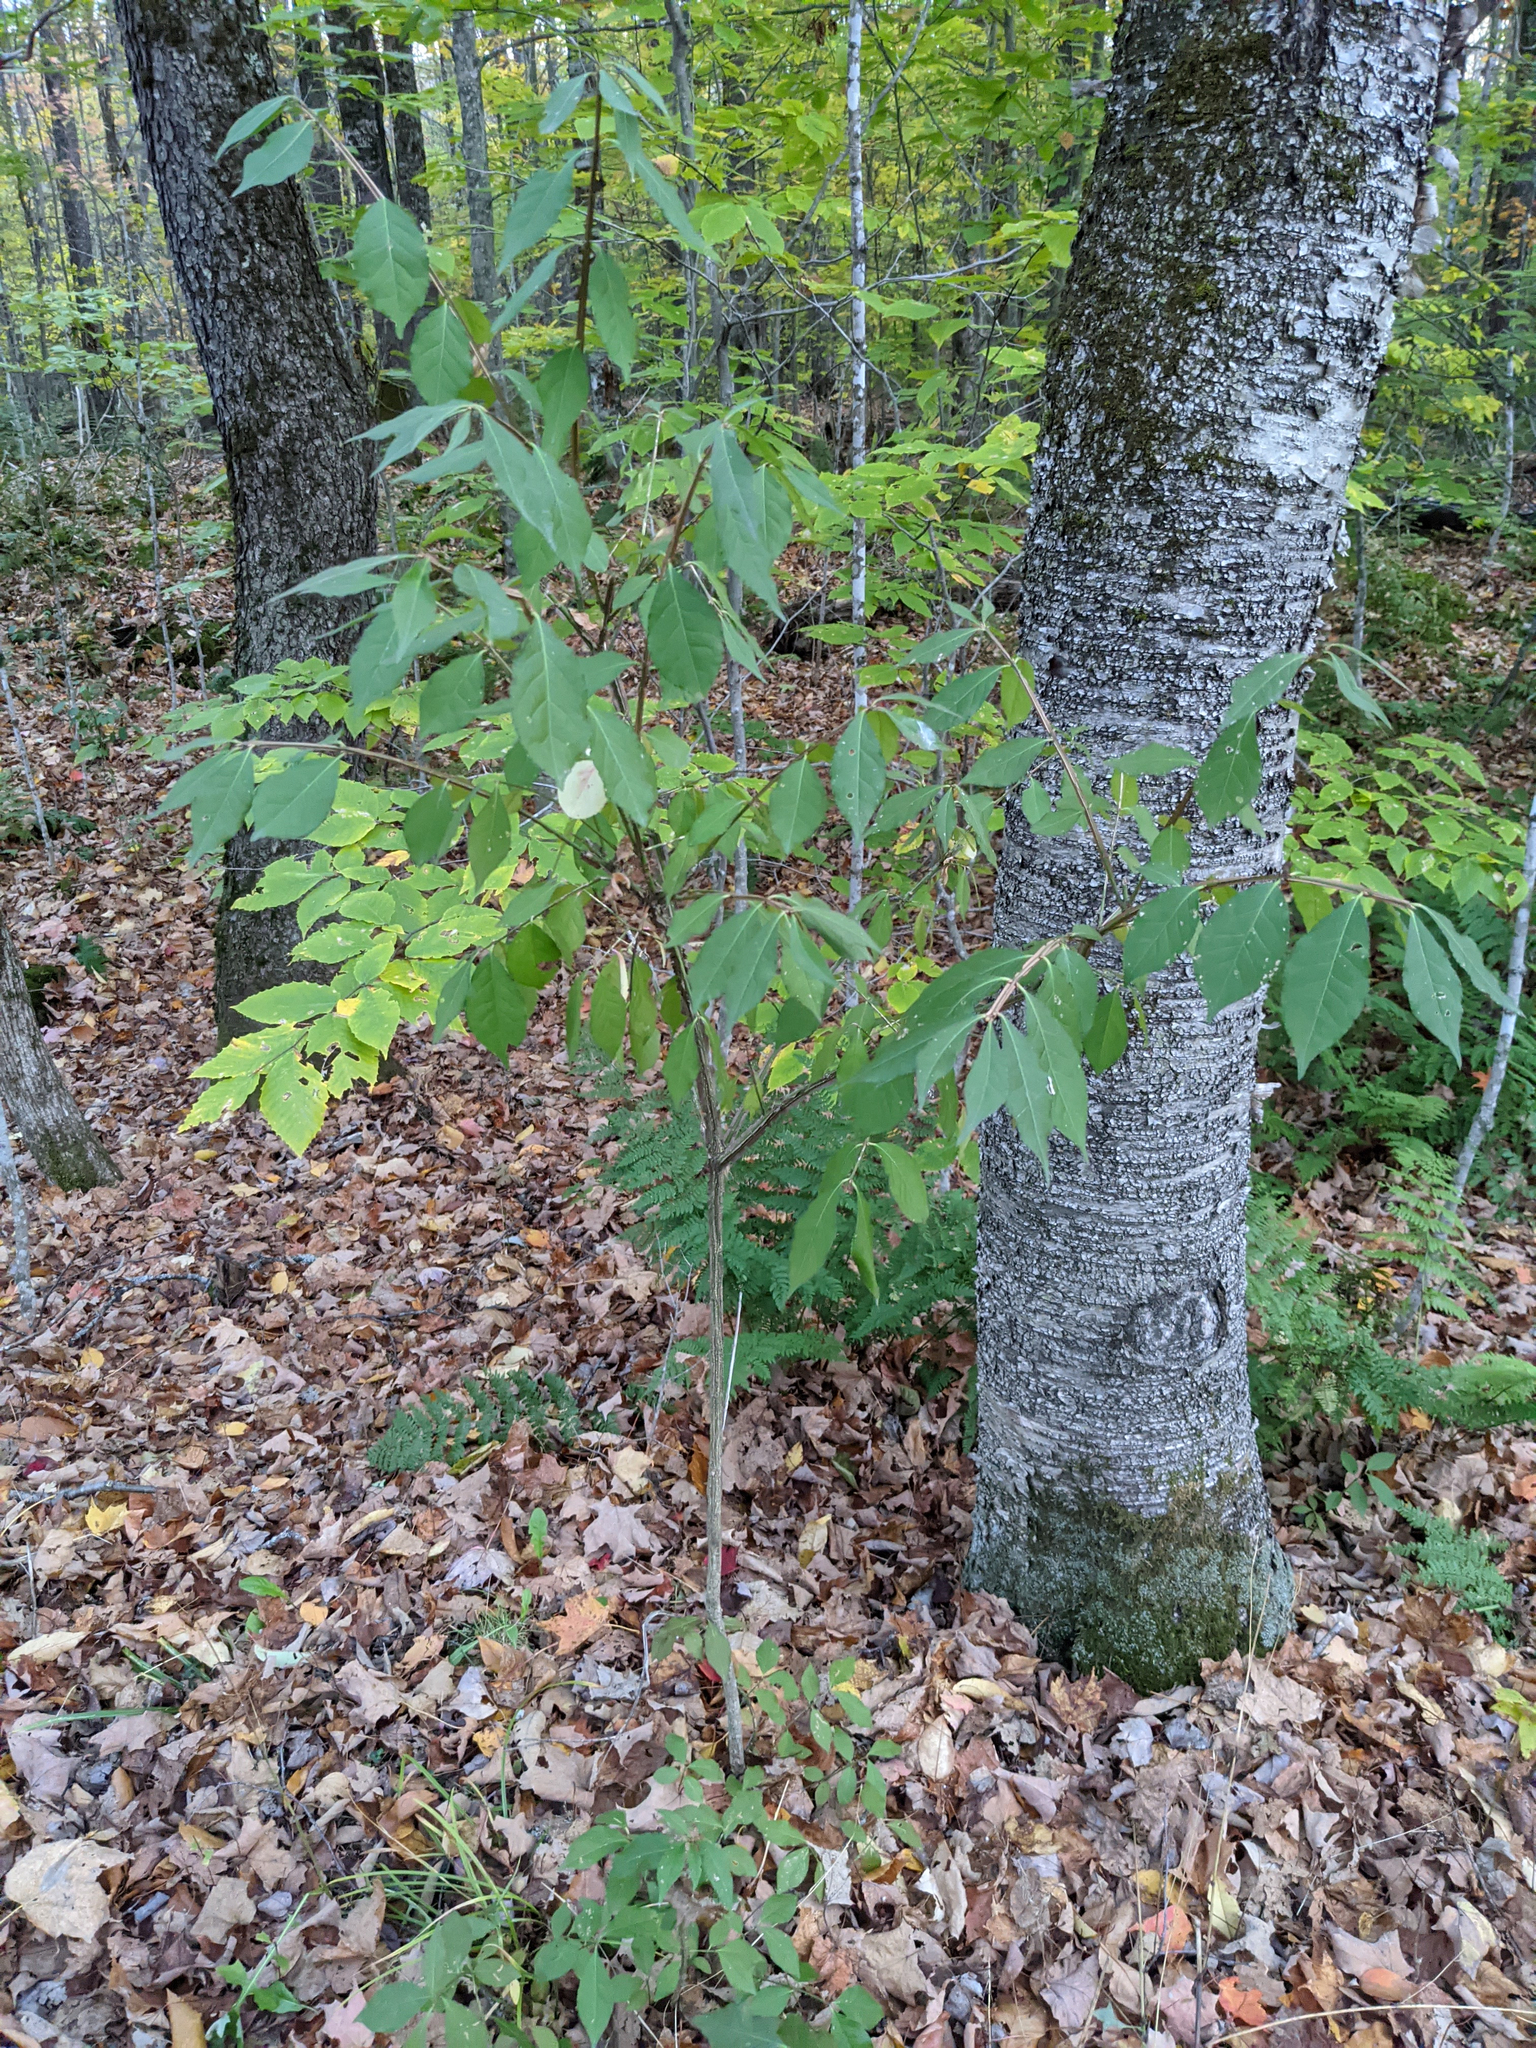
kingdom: Plantae
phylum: Tracheophyta
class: Magnoliopsida
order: Celastrales
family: Celastraceae
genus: Euonymus
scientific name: Euonymus alatus
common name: Winged euonymus
